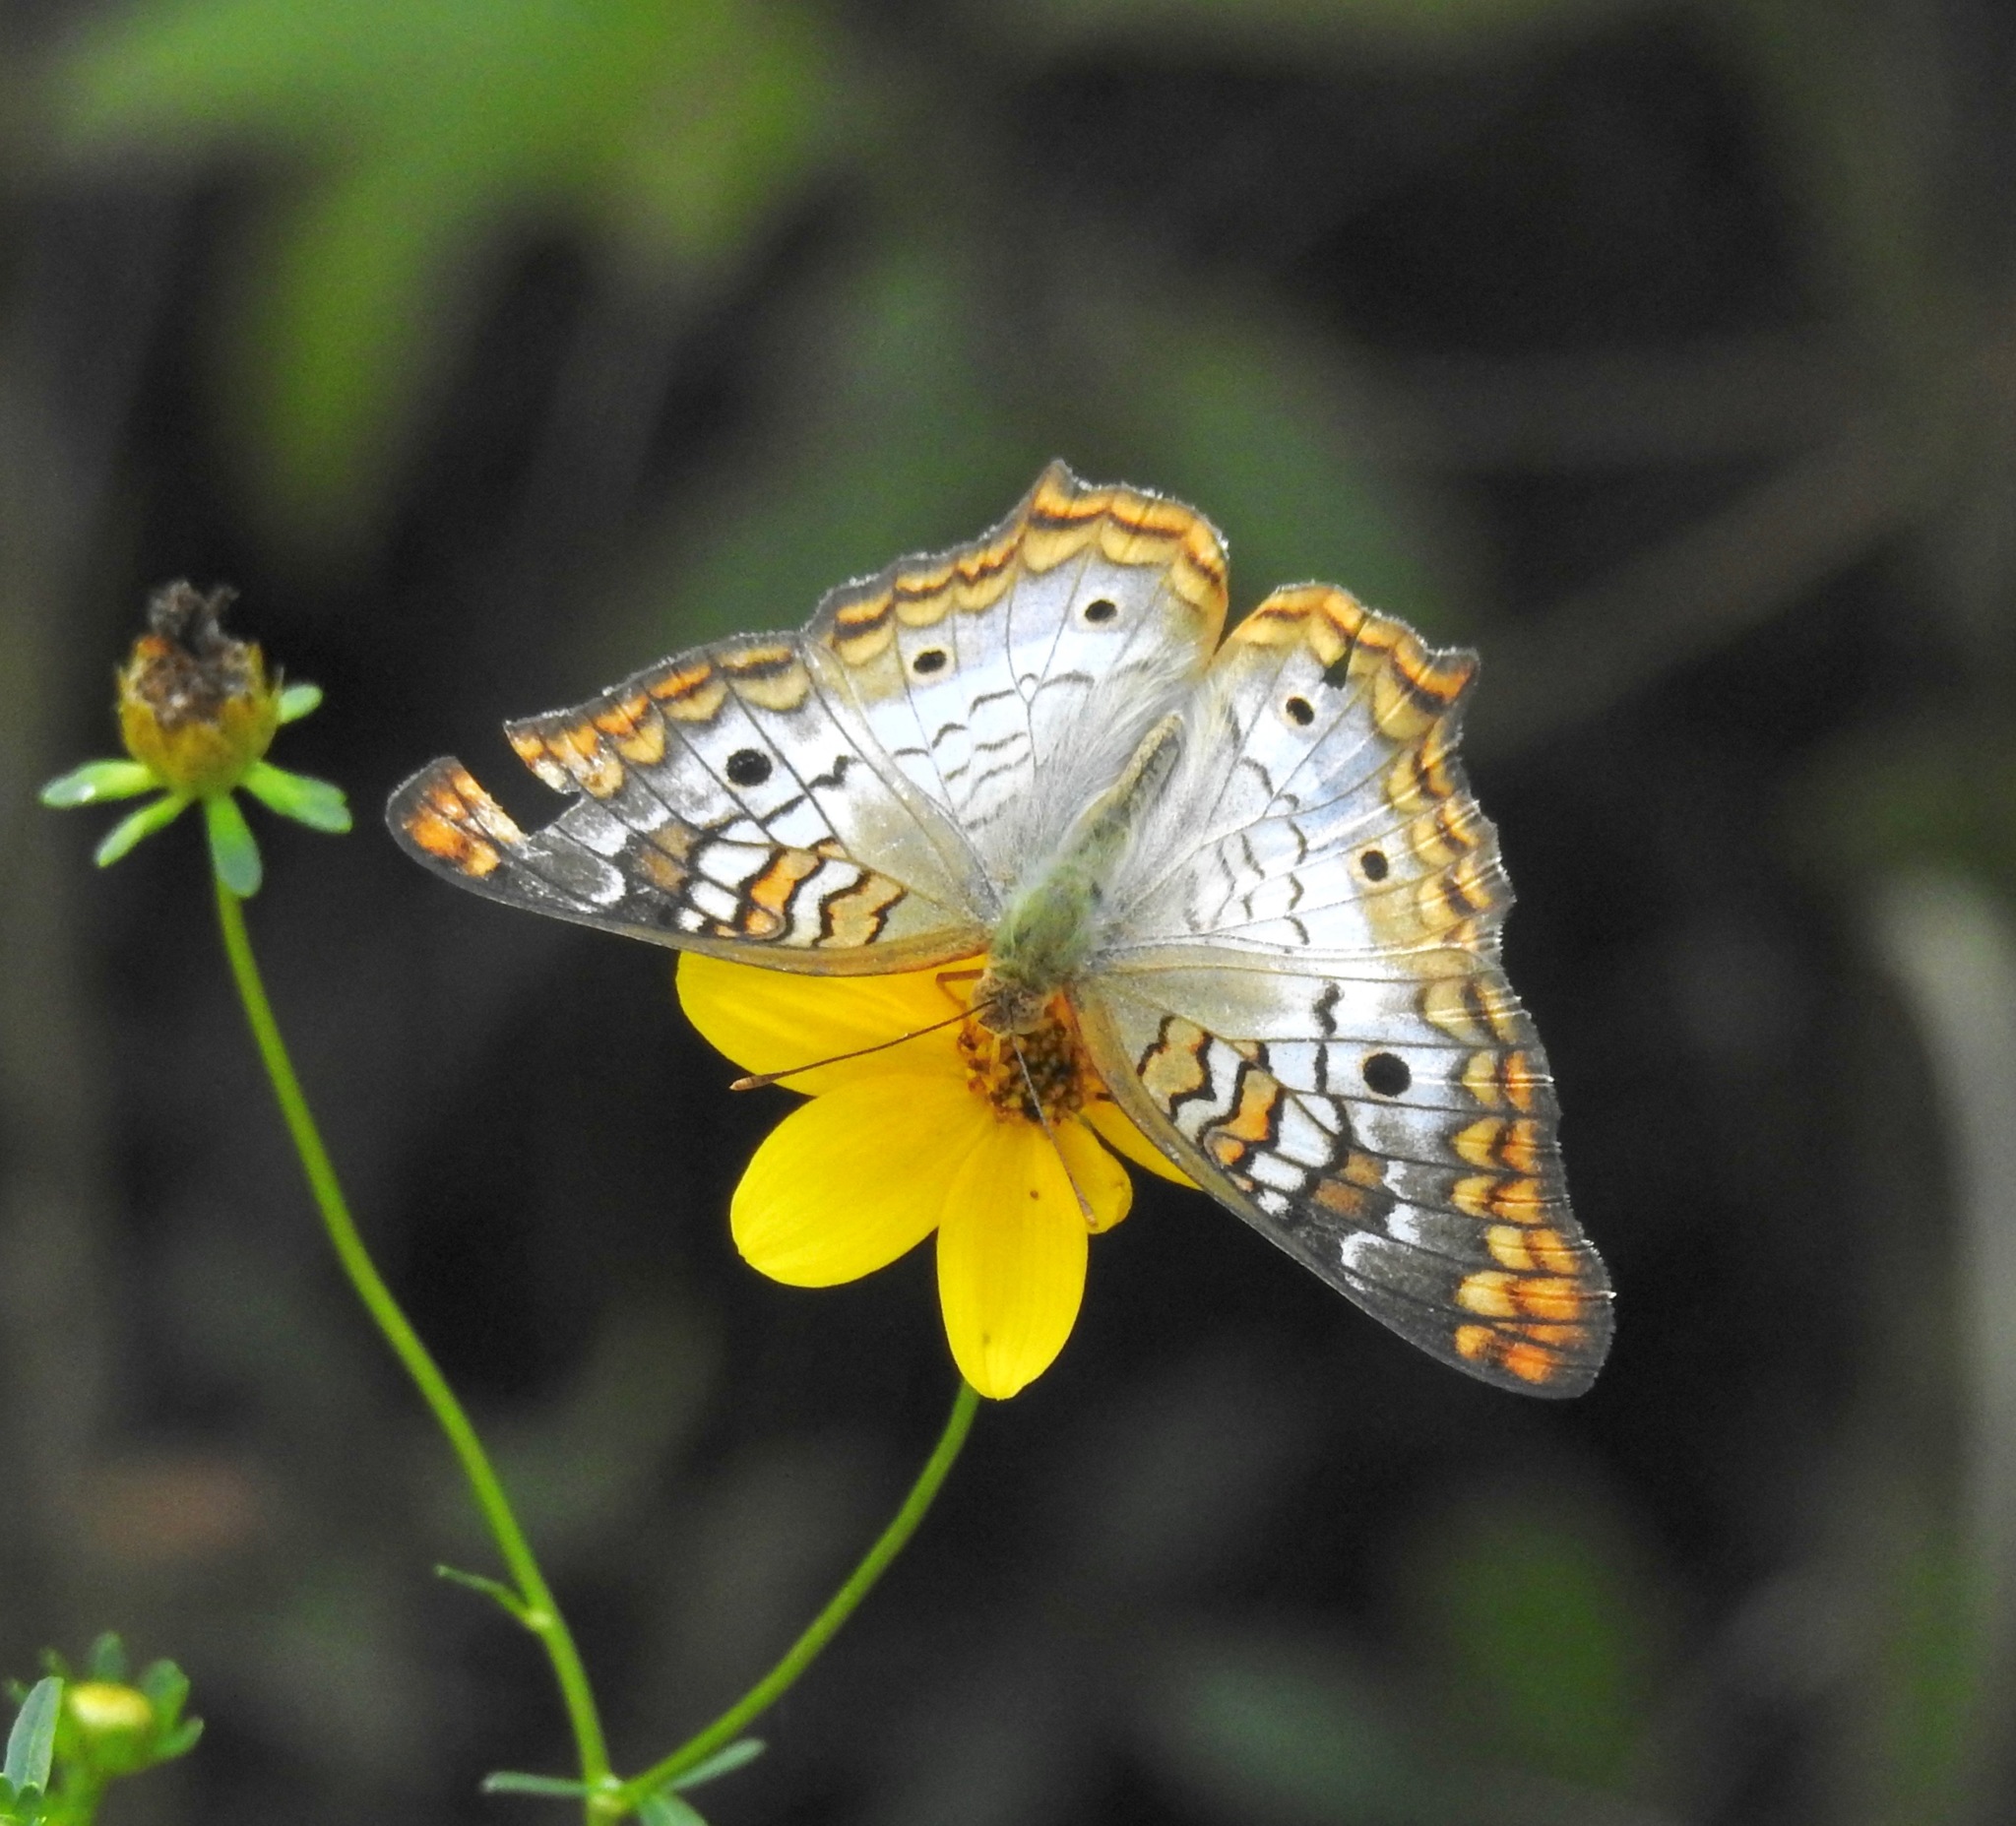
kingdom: Animalia
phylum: Arthropoda
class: Insecta
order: Lepidoptera
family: Nymphalidae
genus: Anartia
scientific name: Anartia jatrophae
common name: White peacock
